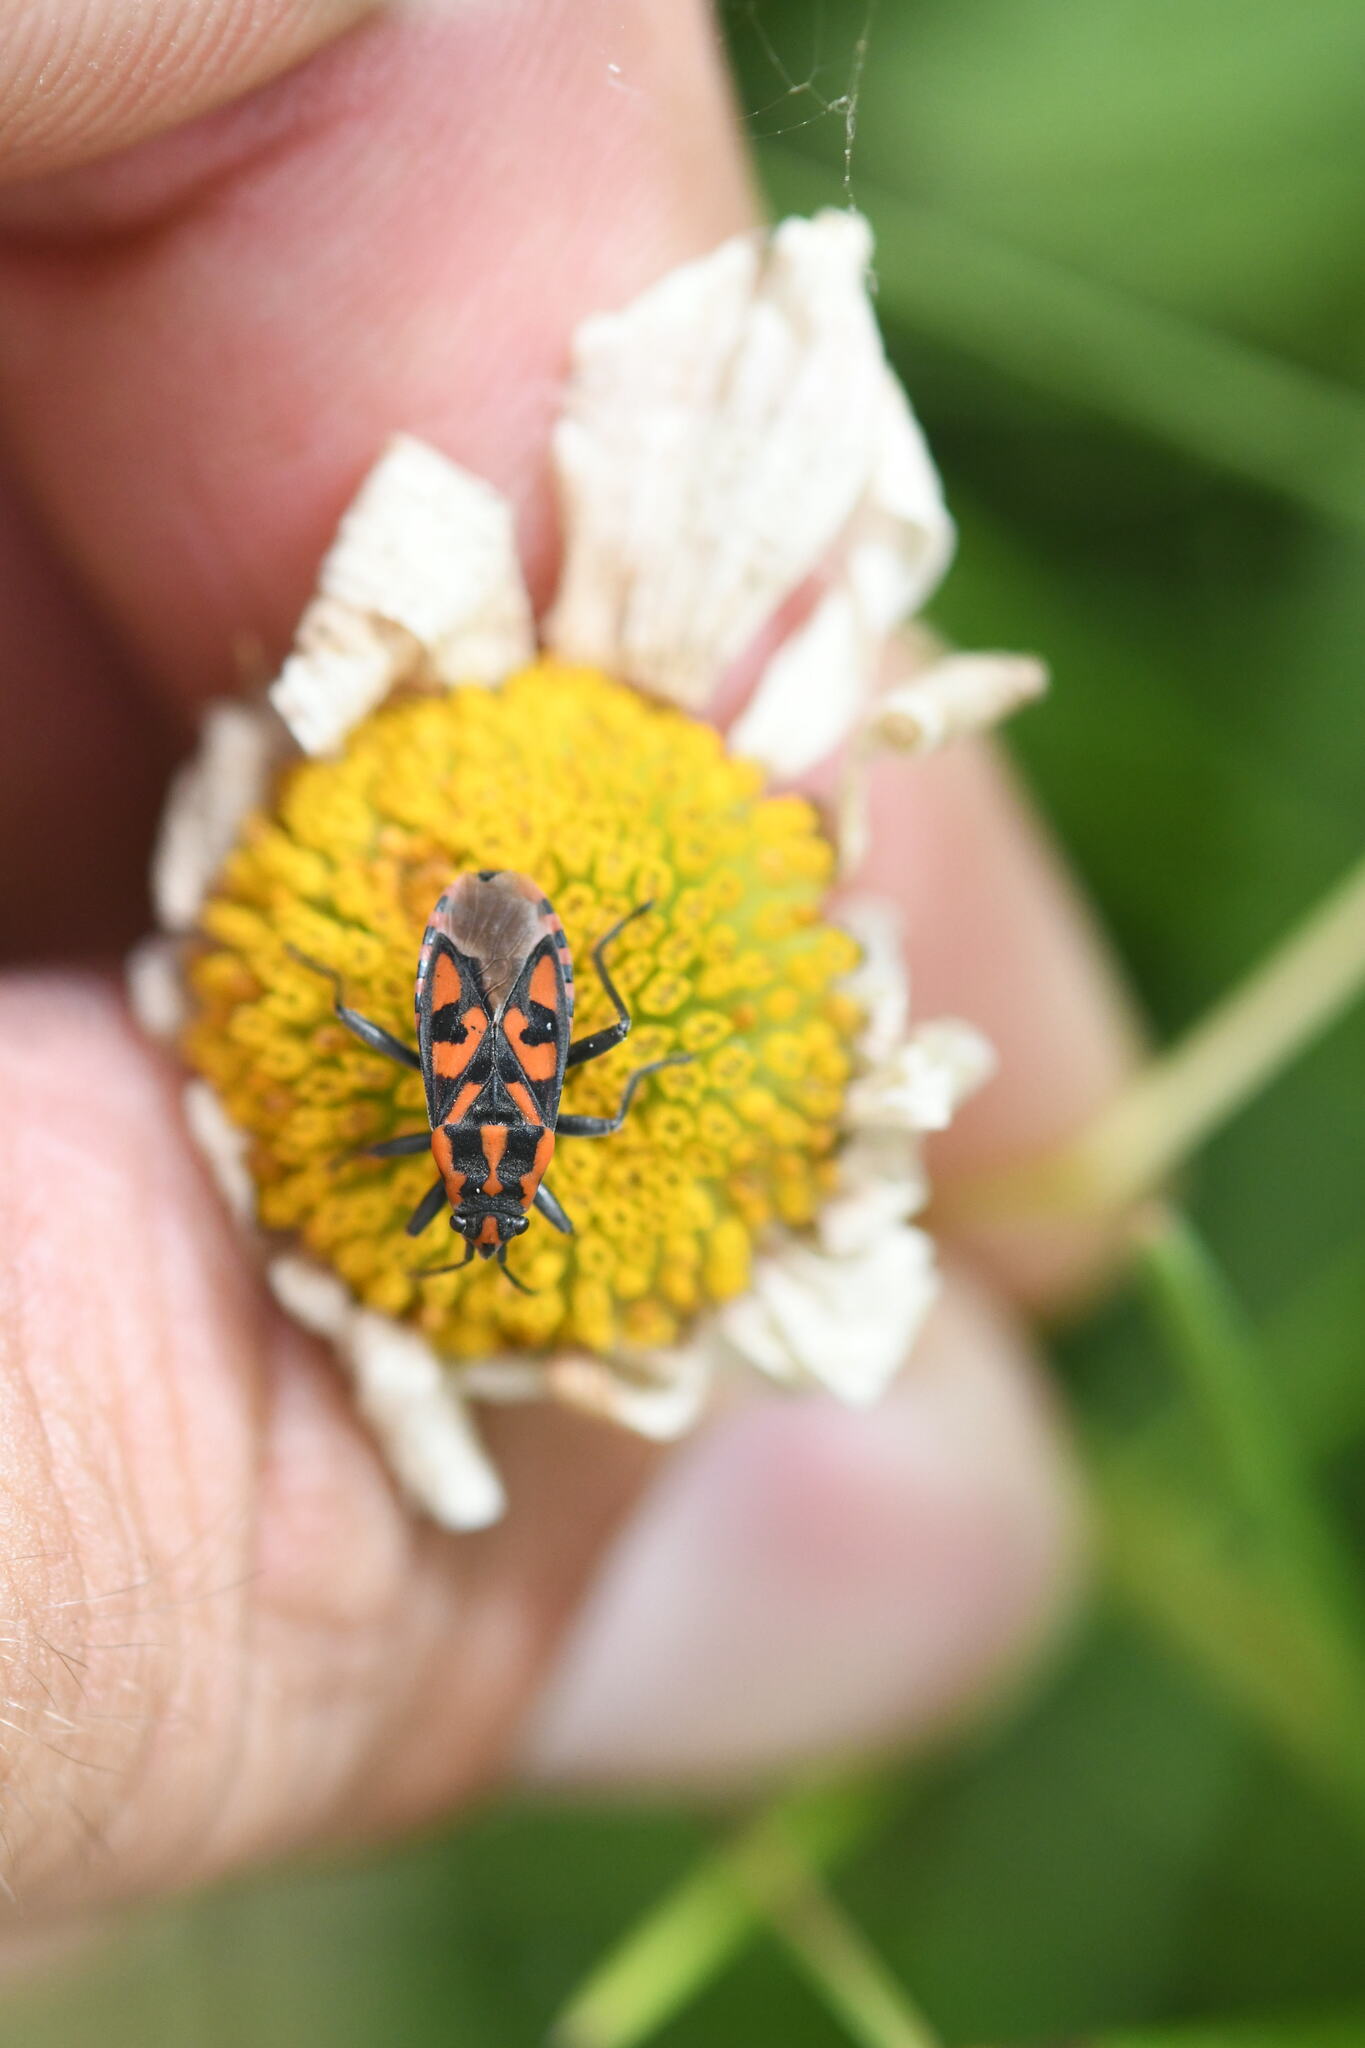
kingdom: Animalia
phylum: Arthropoda
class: Insecta
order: Hemiptera
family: Lygaeidae
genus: Spilostethus
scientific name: Spilostethus saxatilis
